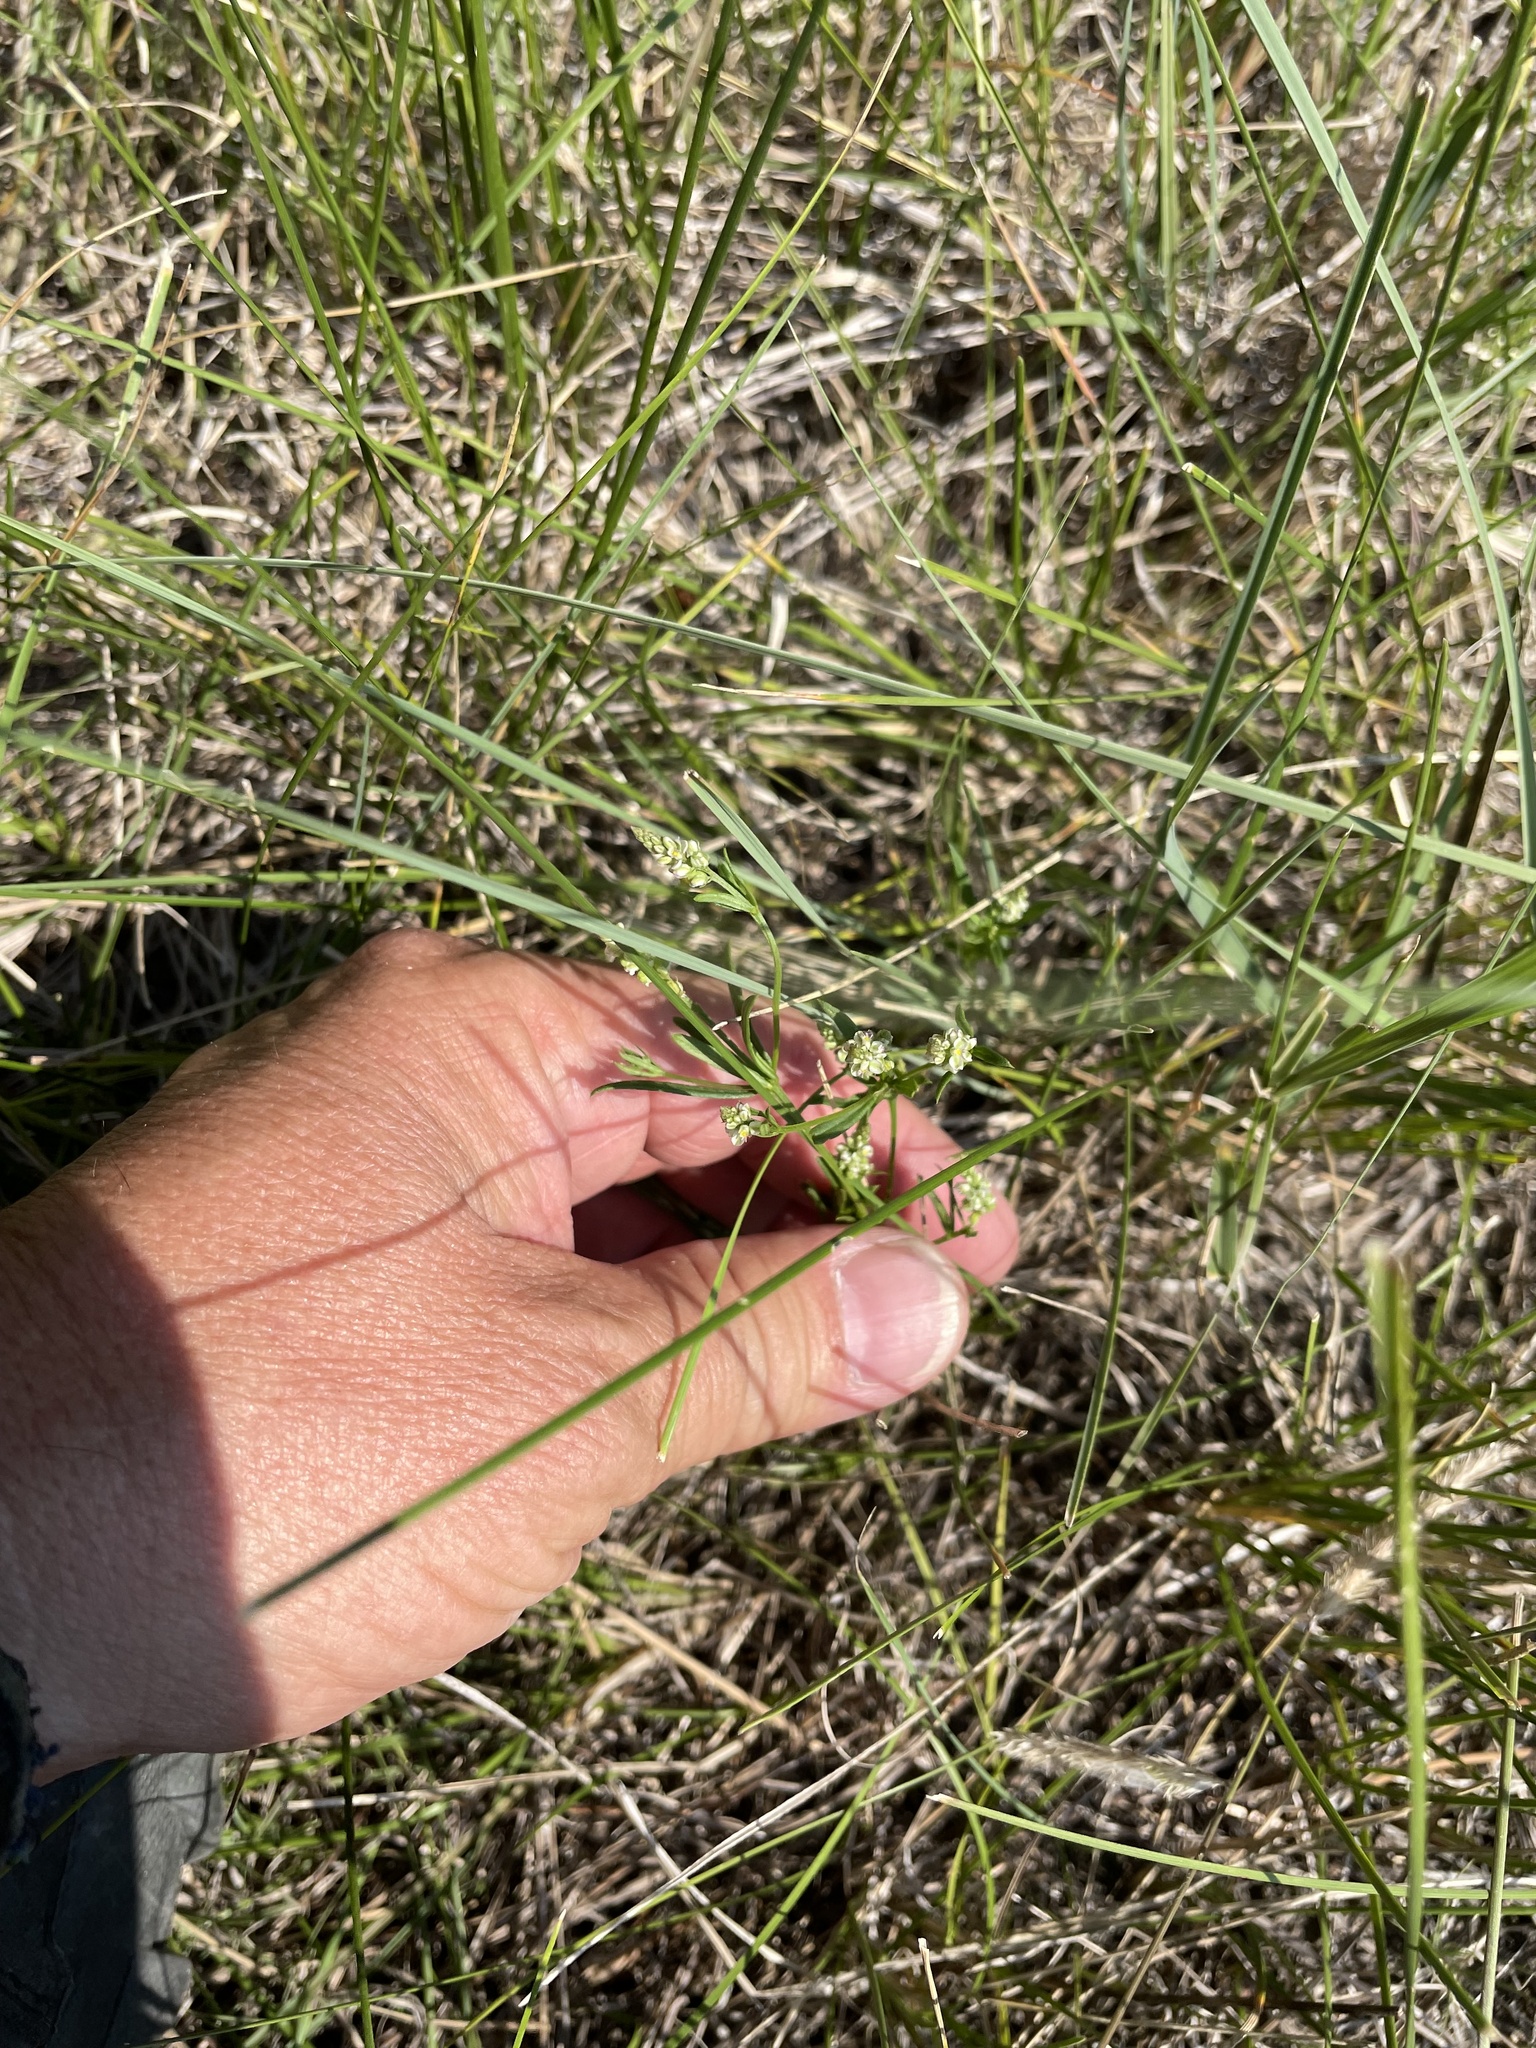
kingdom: Plantae
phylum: Tracheophyta
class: Magnoliopsida
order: Fabales
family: Polygalaceae
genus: Polygala
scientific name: Polygala verticillata
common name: Whorl milkwort
